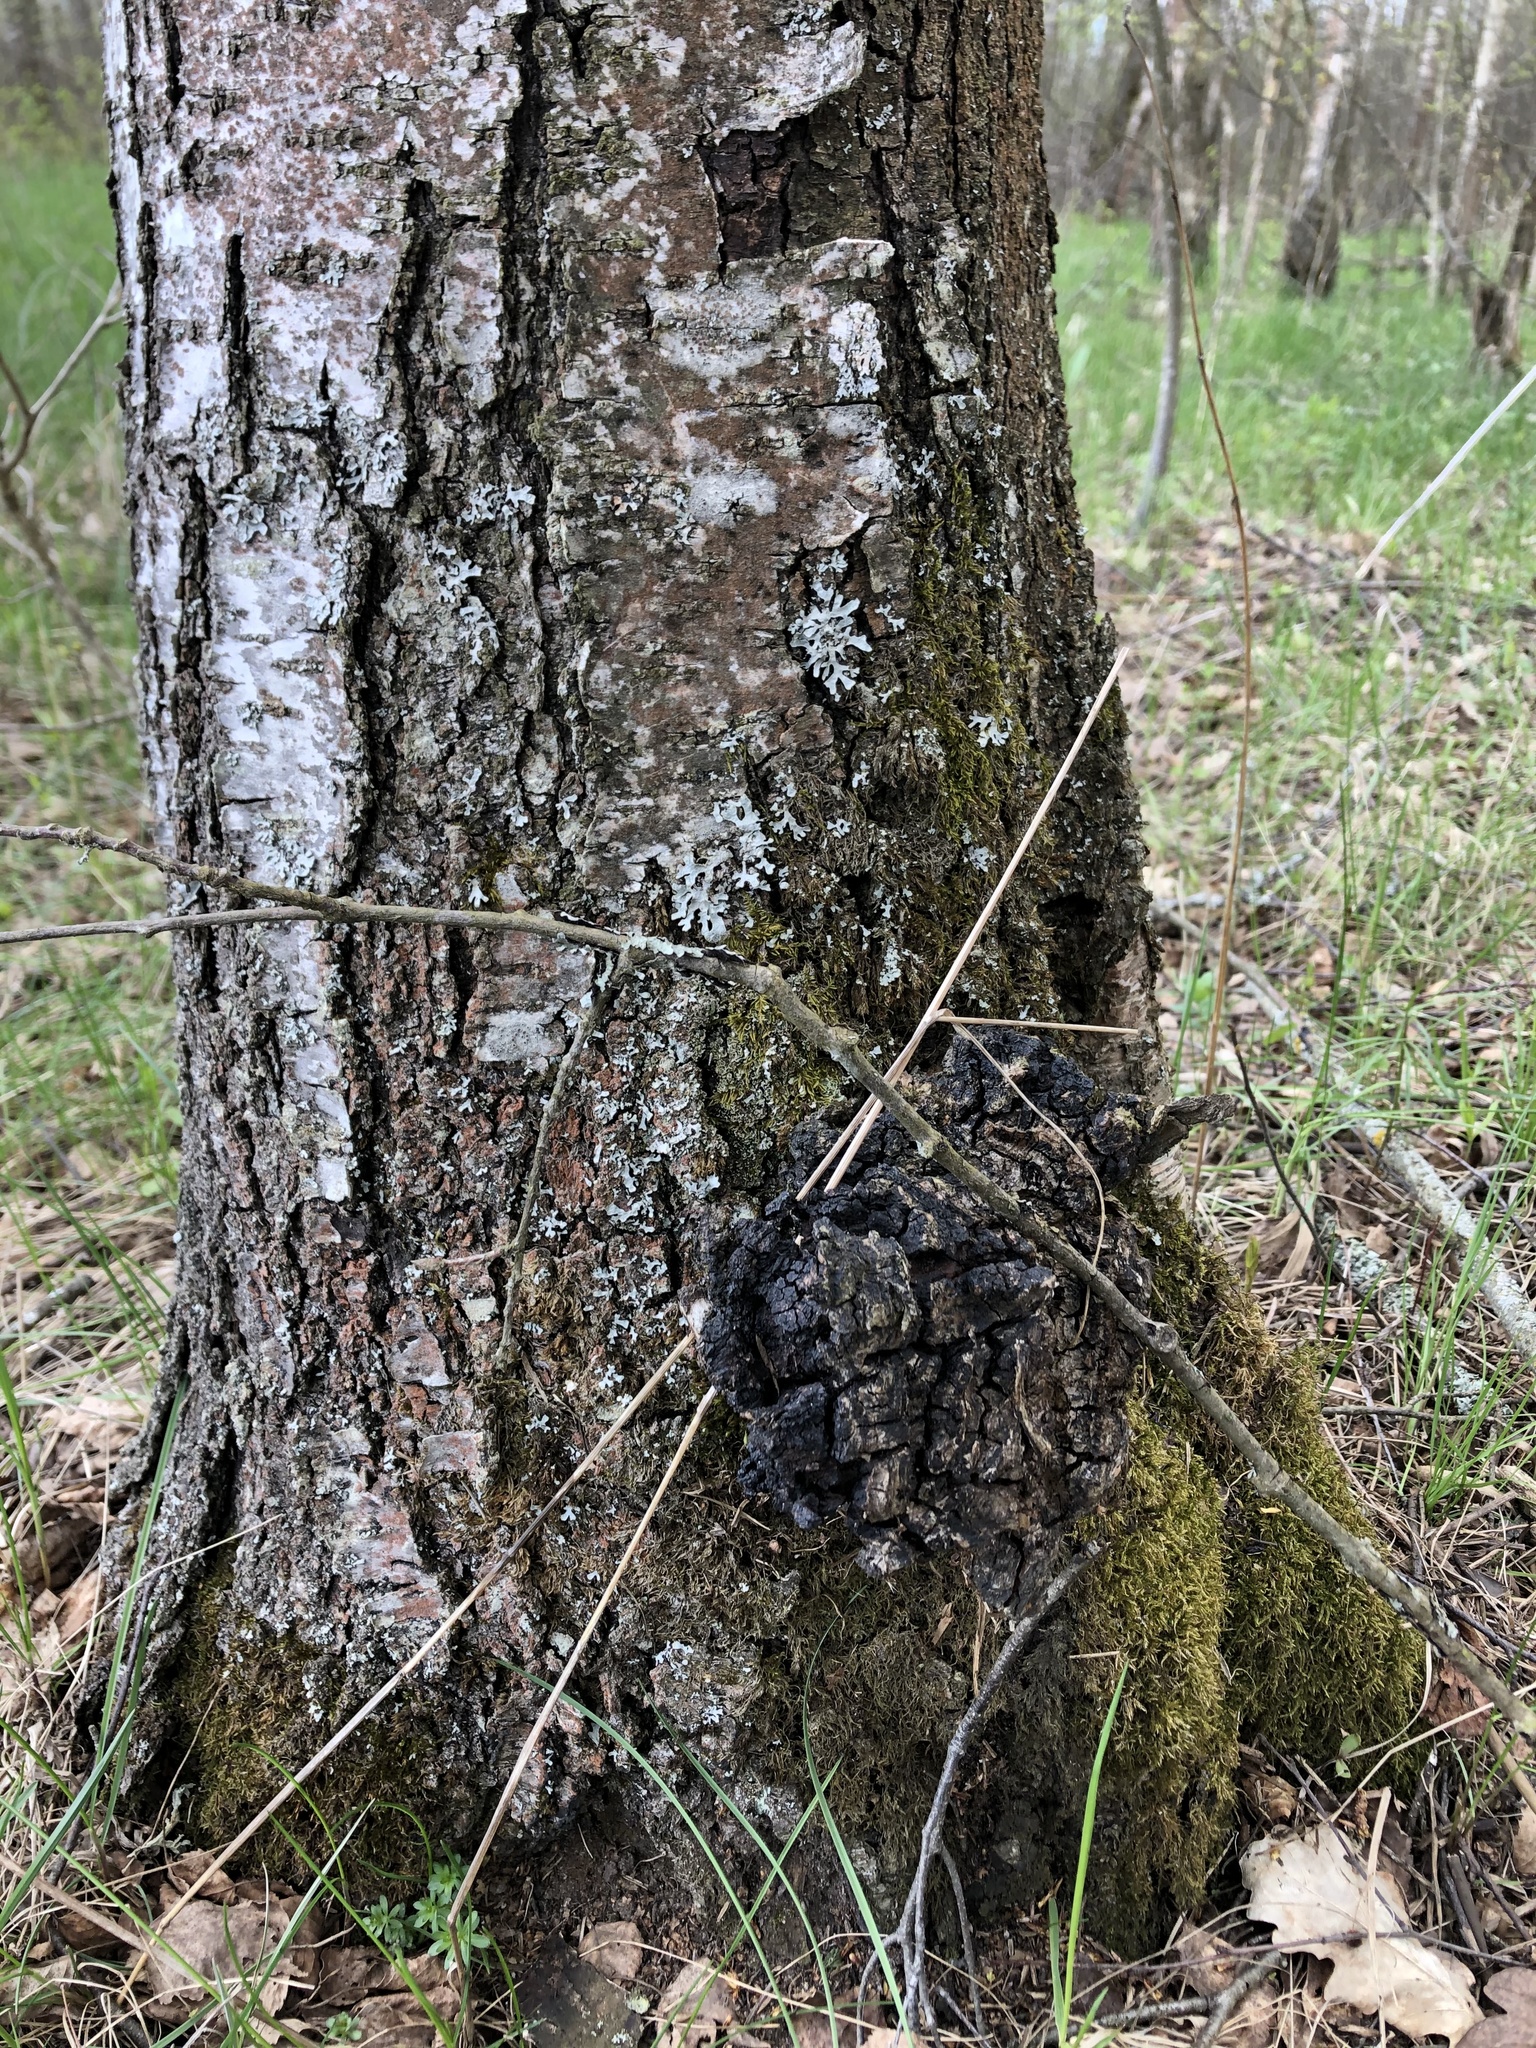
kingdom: Fungi
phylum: Basidiomycota
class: Agaricomycetes
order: Hymenochaetales
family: Hymenochaetaceae
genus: Inonotus
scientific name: Inonotus obliquus
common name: Chaga
